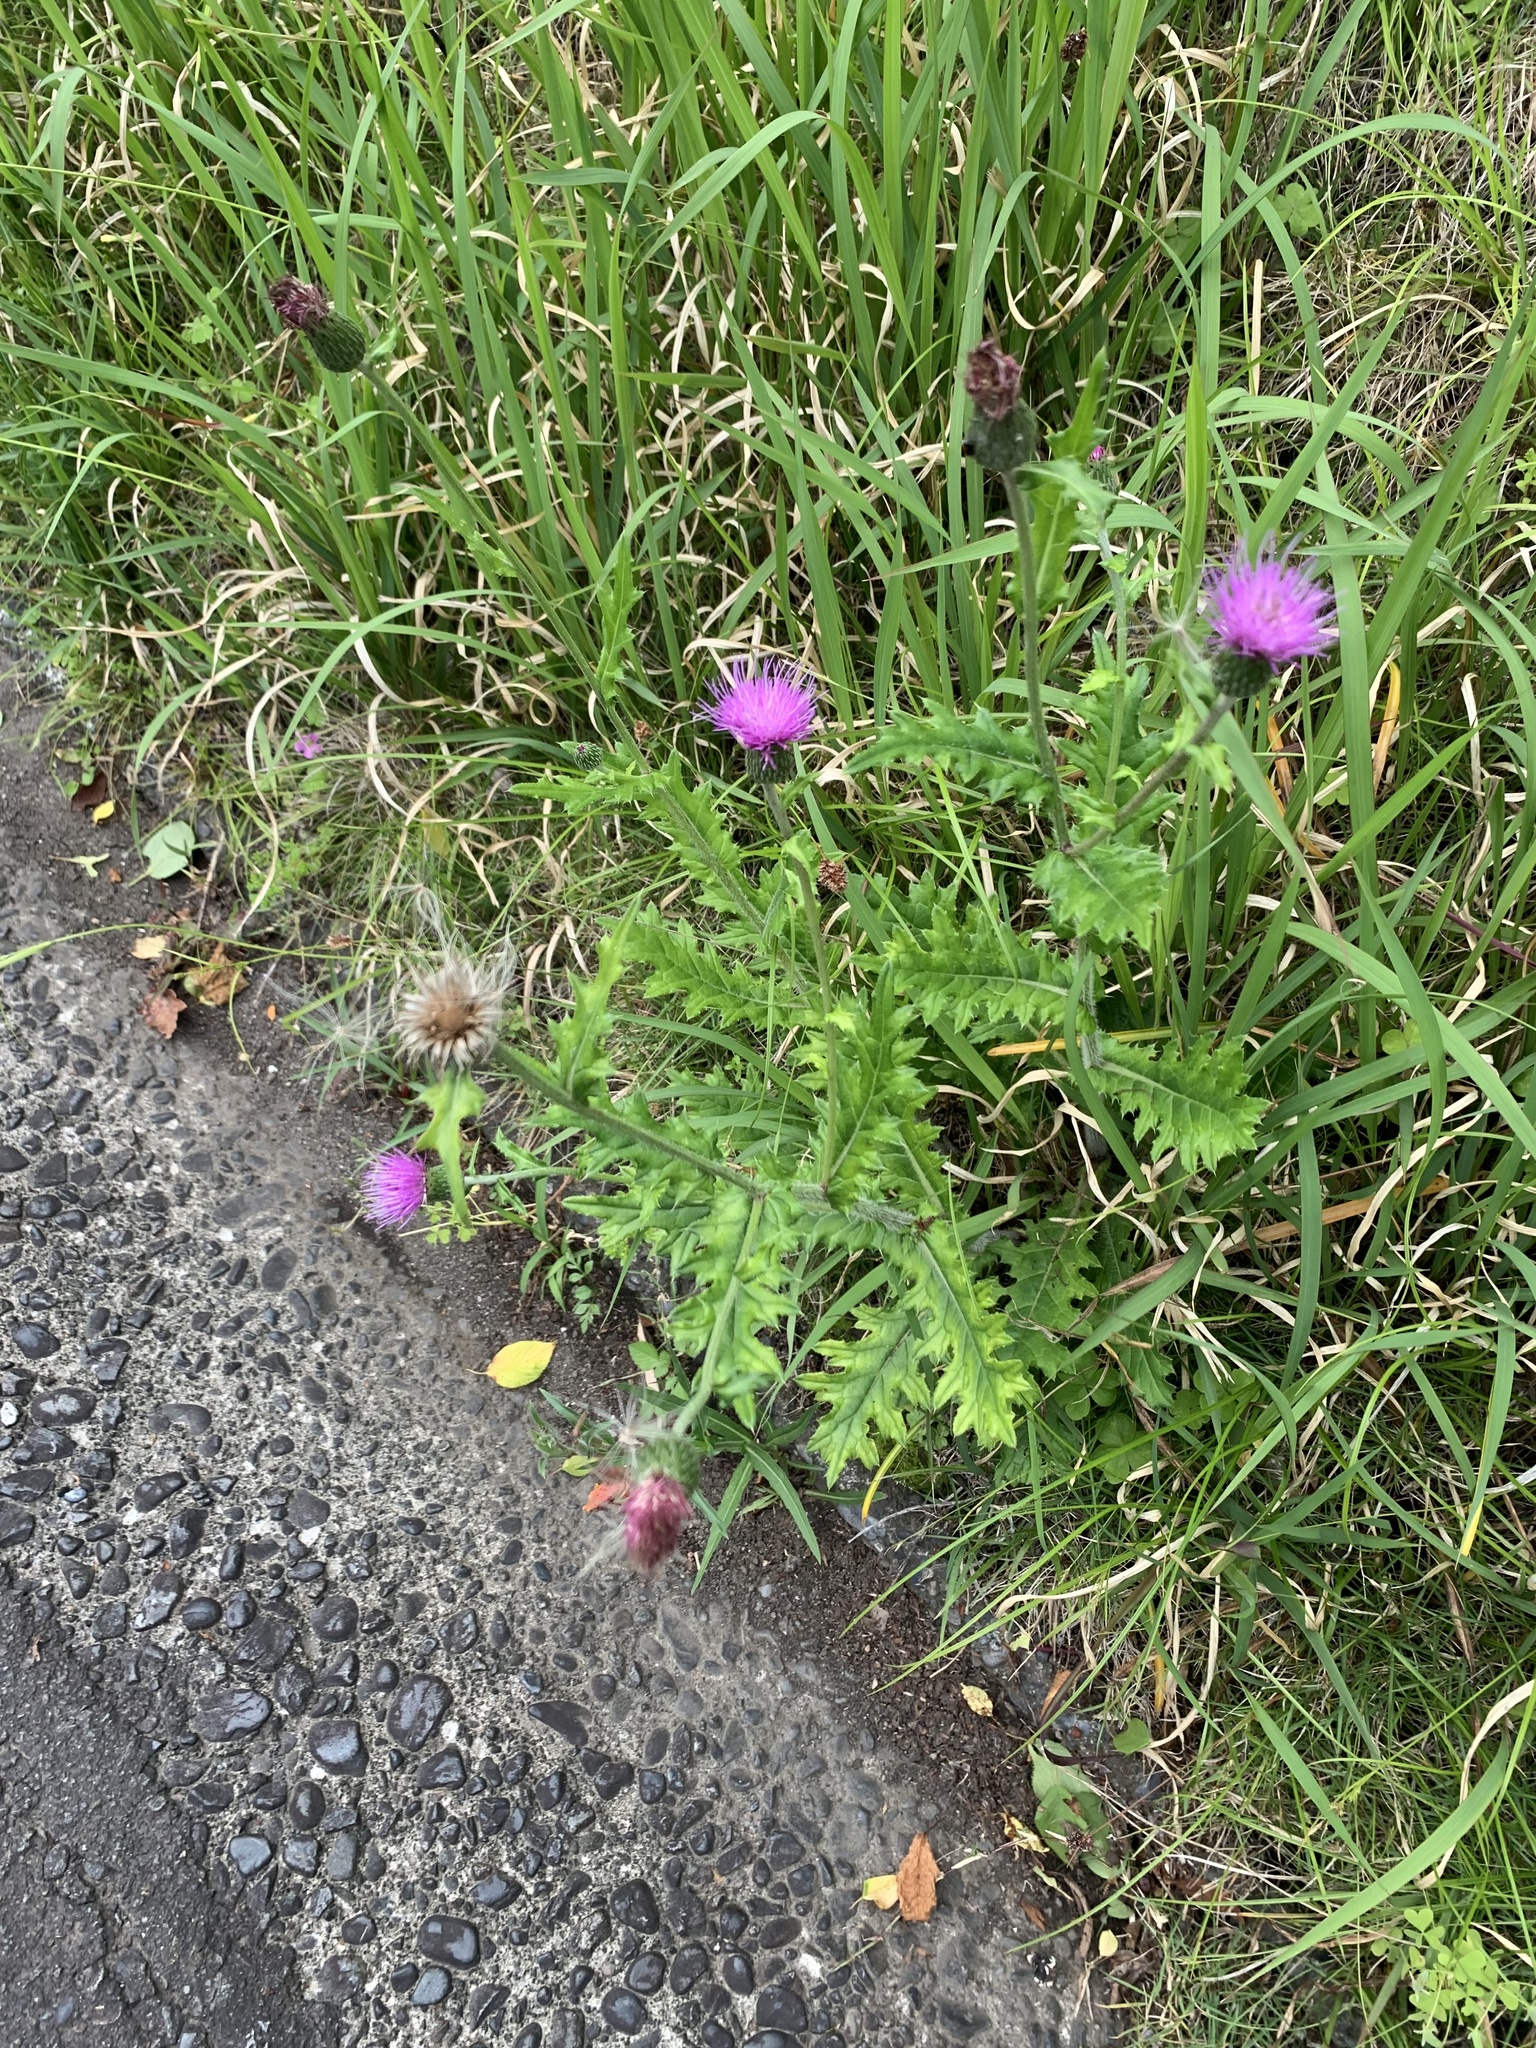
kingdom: Plantae
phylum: Tracheophyta
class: Magnoliopsida
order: Asterales
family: Asteraceae
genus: Cirsium
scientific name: Cirsium japonicum
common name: Japanese thistle
